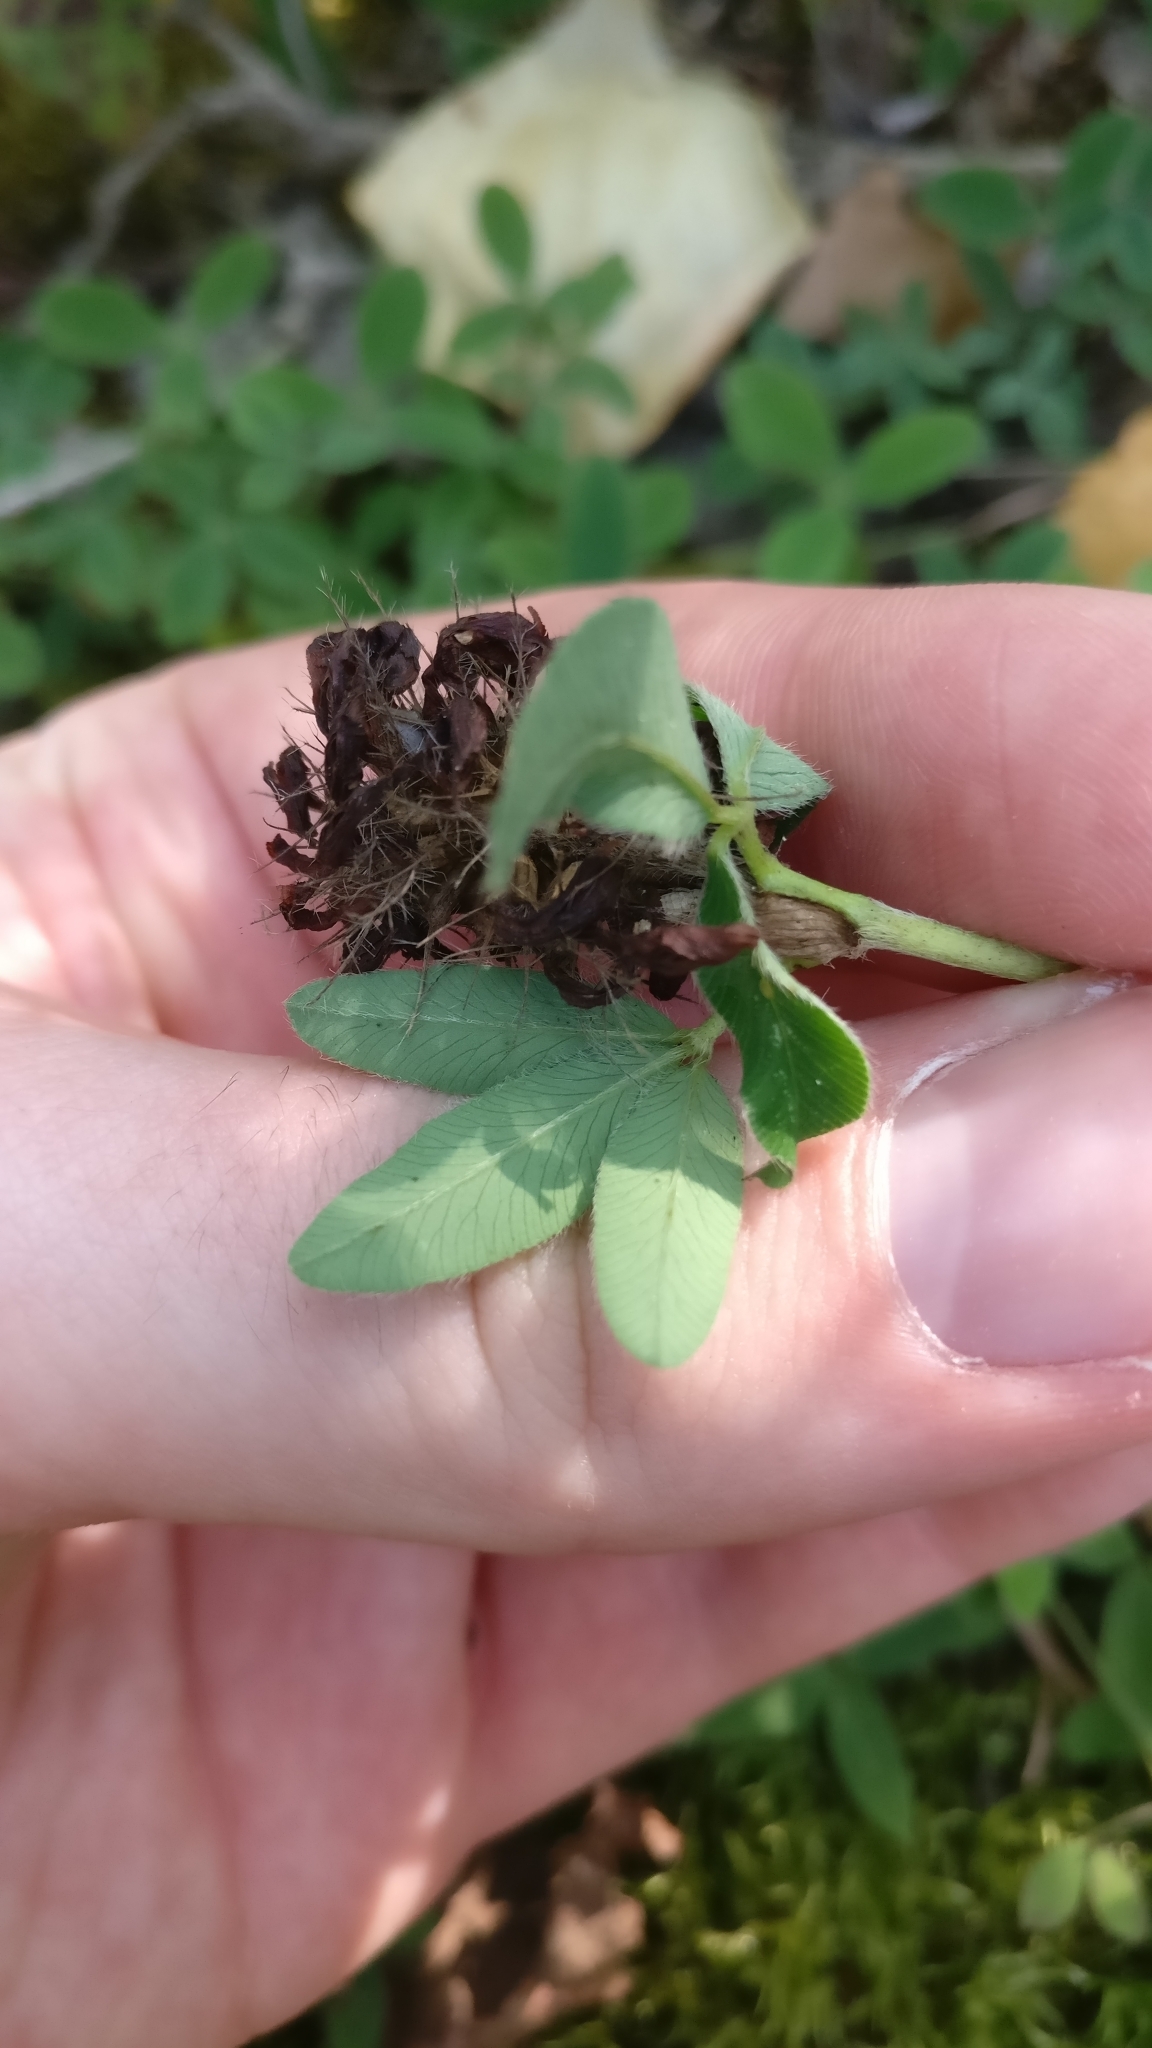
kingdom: Plantae
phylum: Tracheophyta
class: Magnoliopsida
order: Fabales
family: Fabaceae
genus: Trifolium
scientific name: Trifolium medium
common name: Zigzag clover
